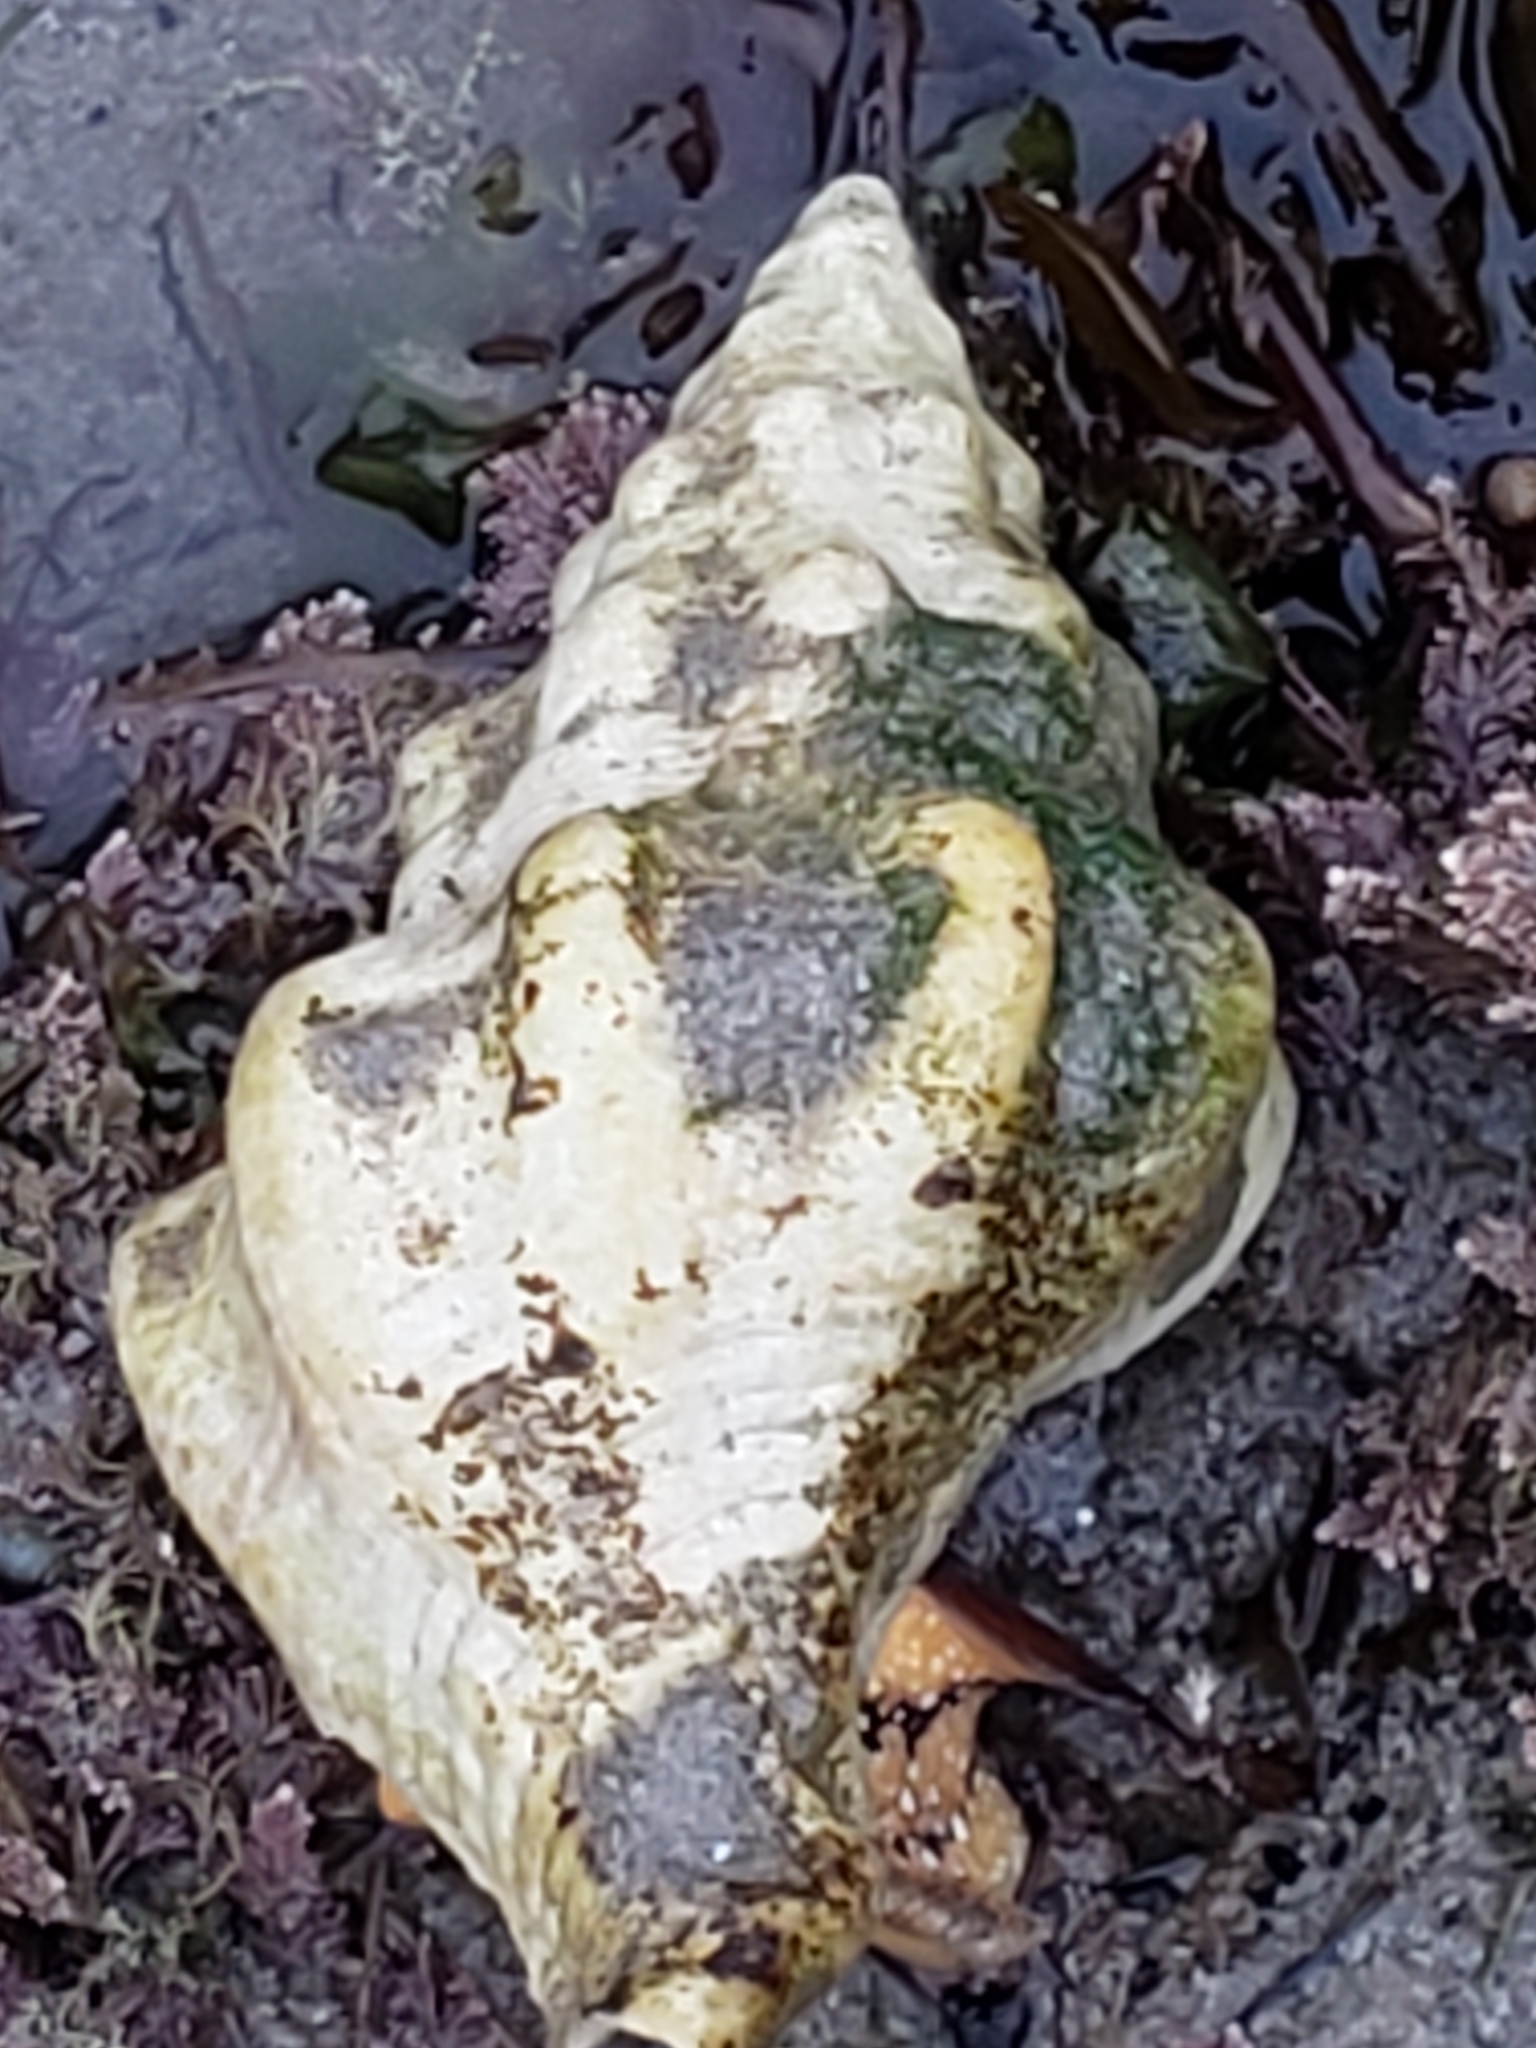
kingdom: Animalia
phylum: Mollusca
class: Gastropoda
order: Neogastropoda
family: Austrosiphonidae
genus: Kelletia
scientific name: Kelletia kelletii
